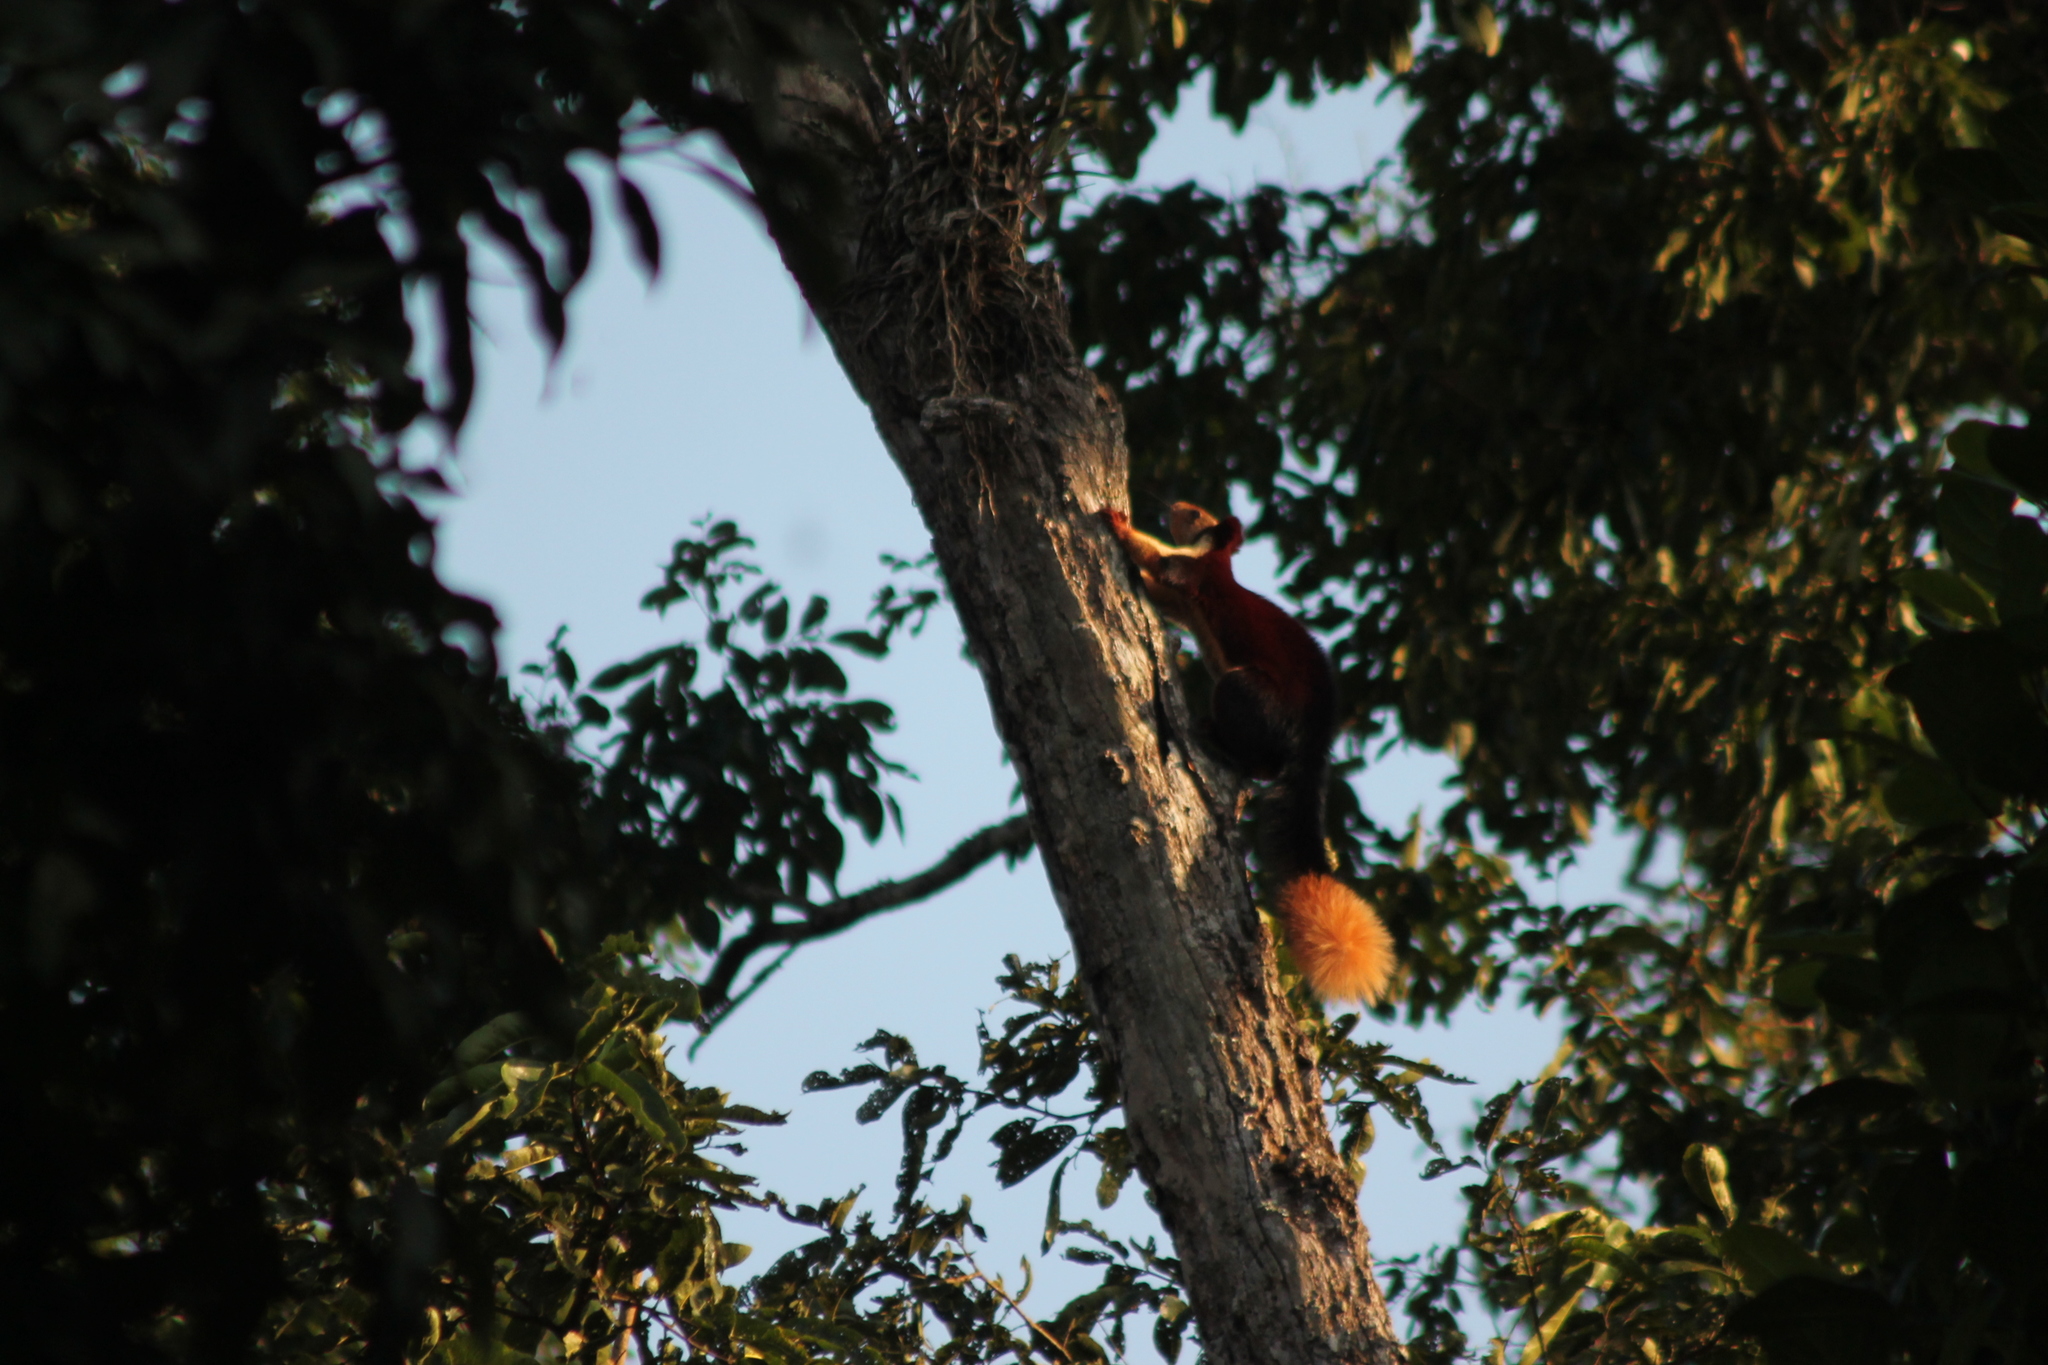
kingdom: Animalia
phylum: Chordata
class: Mammalia
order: Rodentia
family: Sciuridae
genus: Ratufa
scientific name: Ratufa indica
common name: Indian giant squirrel
